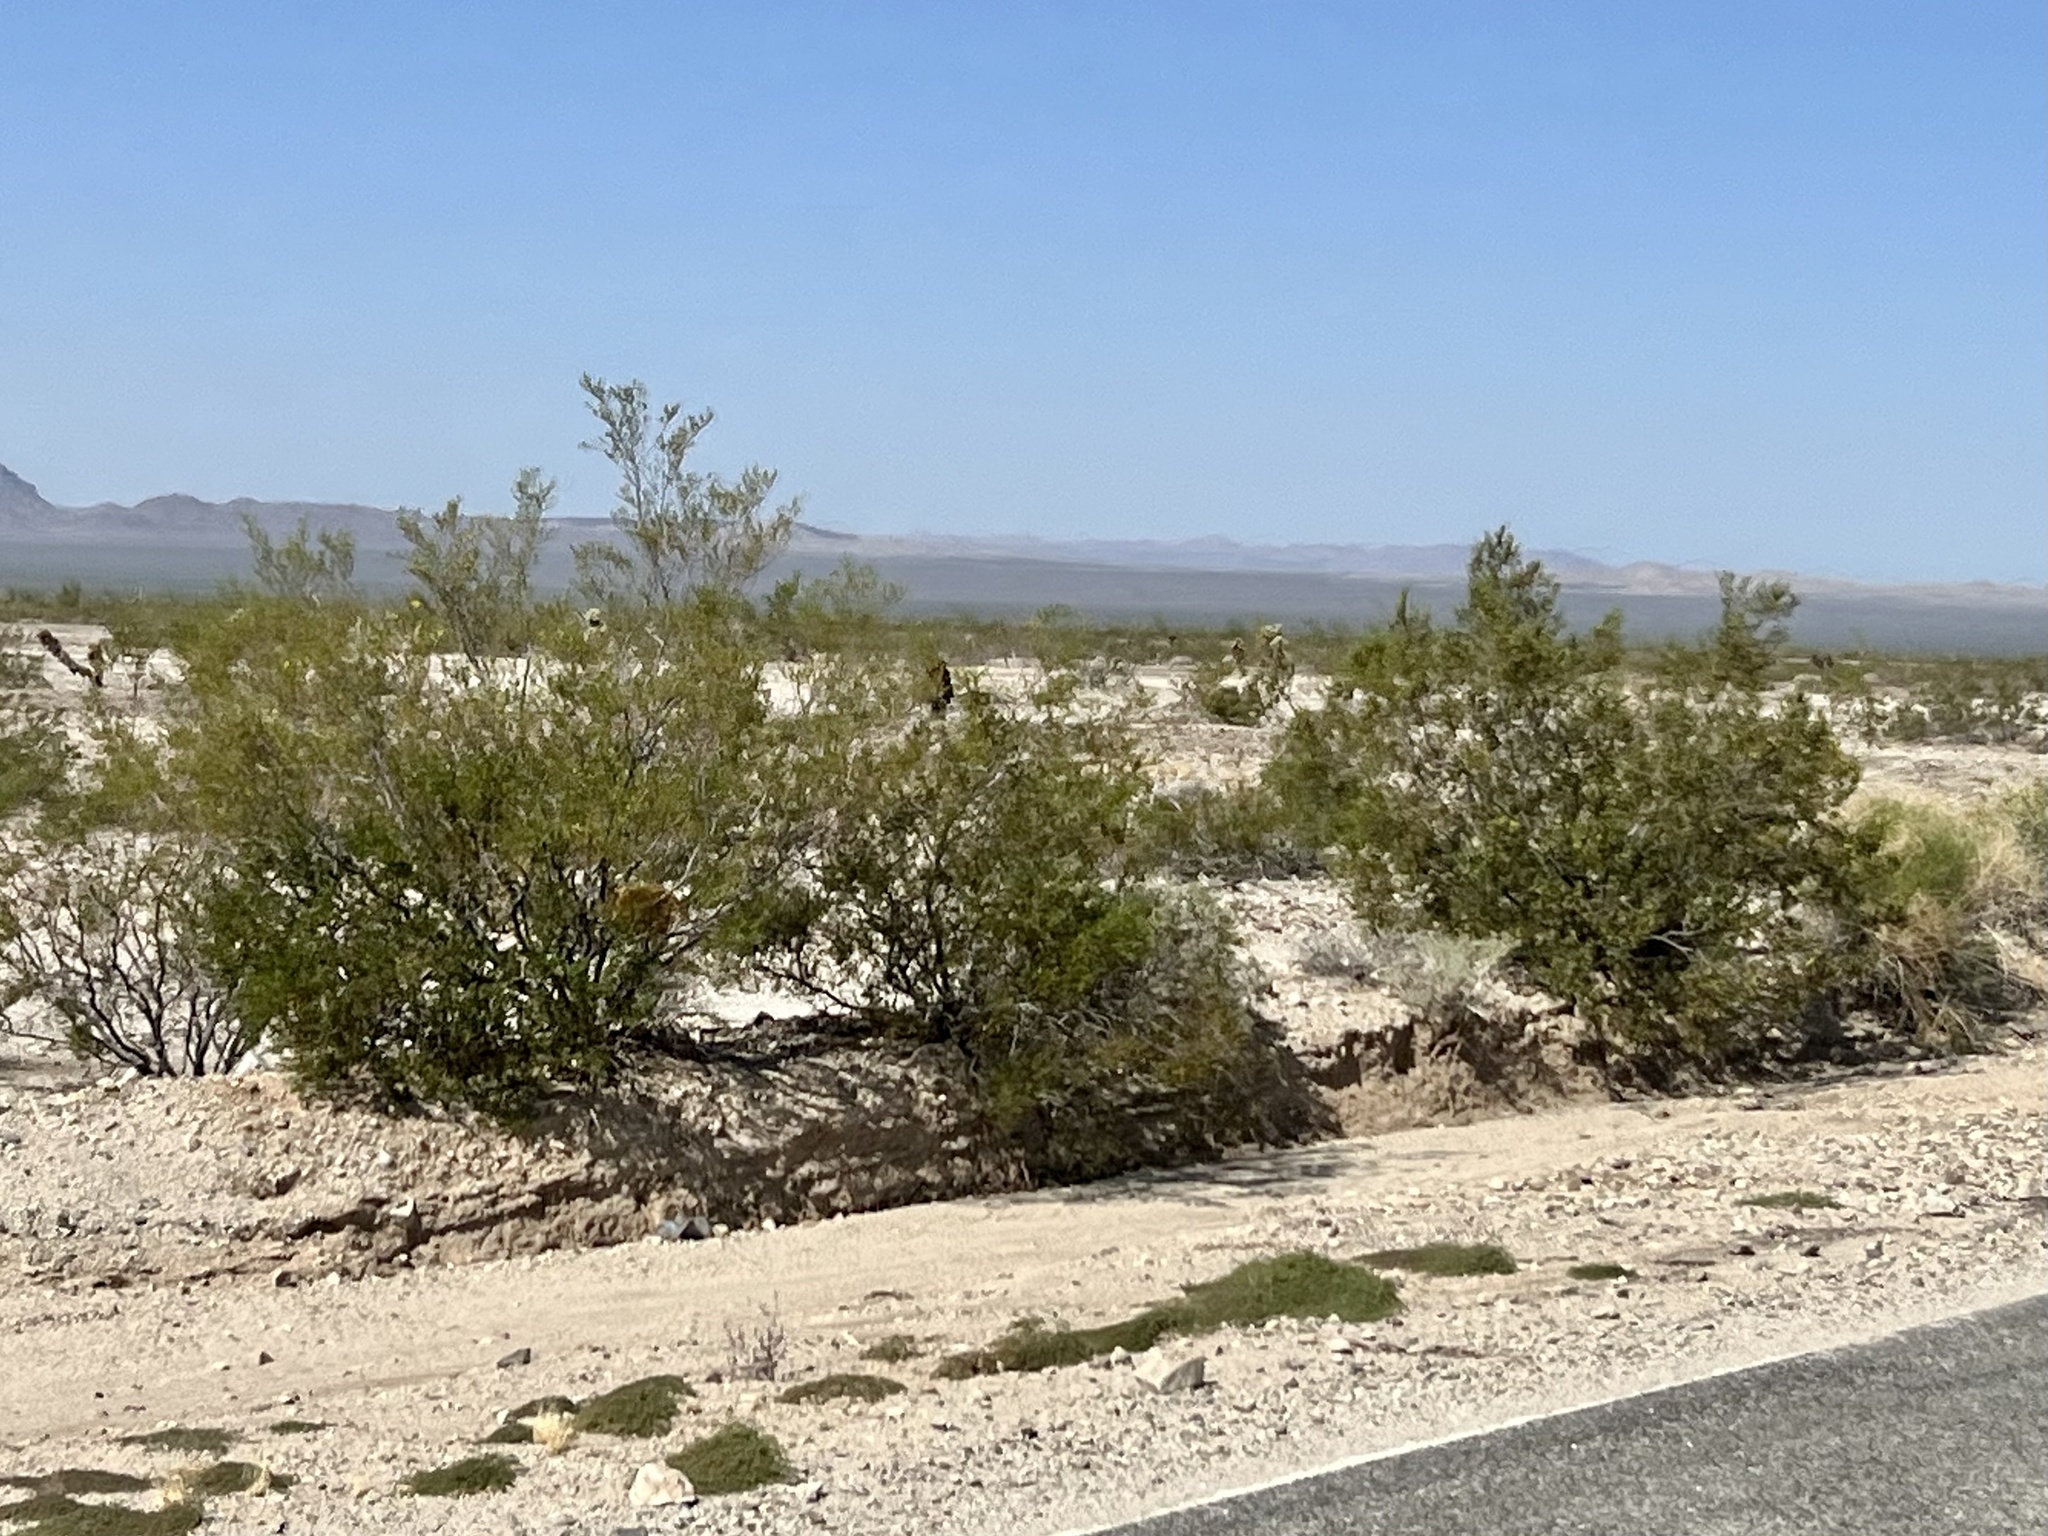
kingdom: Plantae
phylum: Tracheophyta
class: Magnoliopsida
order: Zygophyllales
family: Zygophyllaceae
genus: Larrea
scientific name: Larrea tridentata
